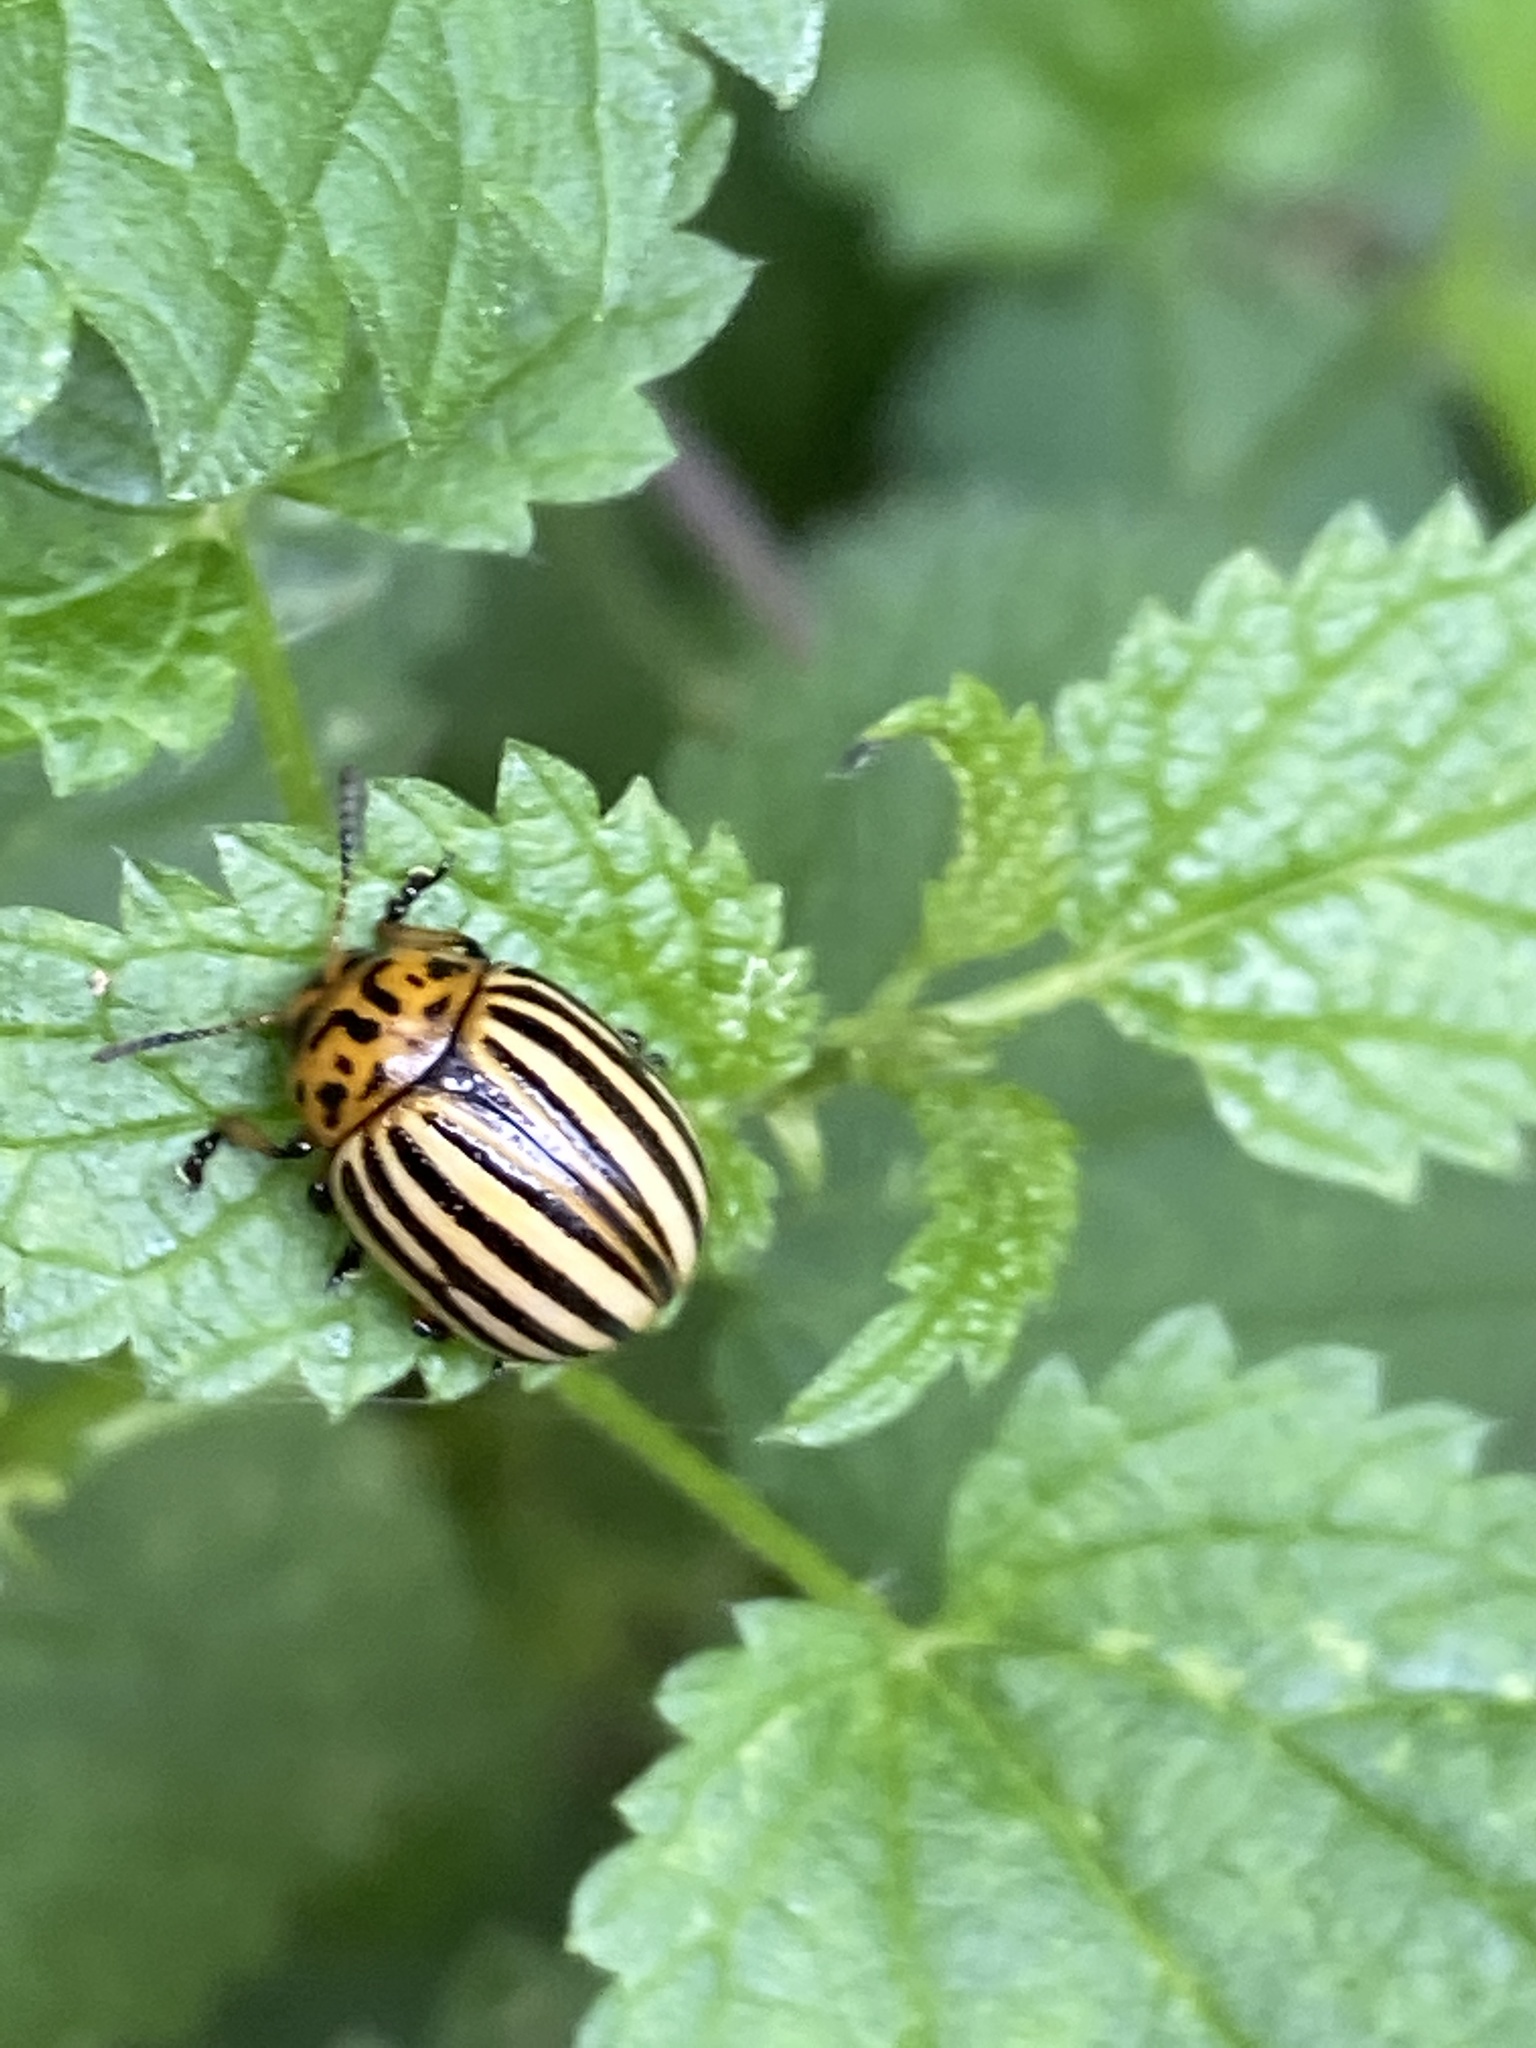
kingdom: Animalia
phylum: Arthropoda
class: Insecta
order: Coleoptera
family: Chrysomelidae
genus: Leptinotarsa
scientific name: Leptinotarsa decemlineata
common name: Colorado potato beetle
